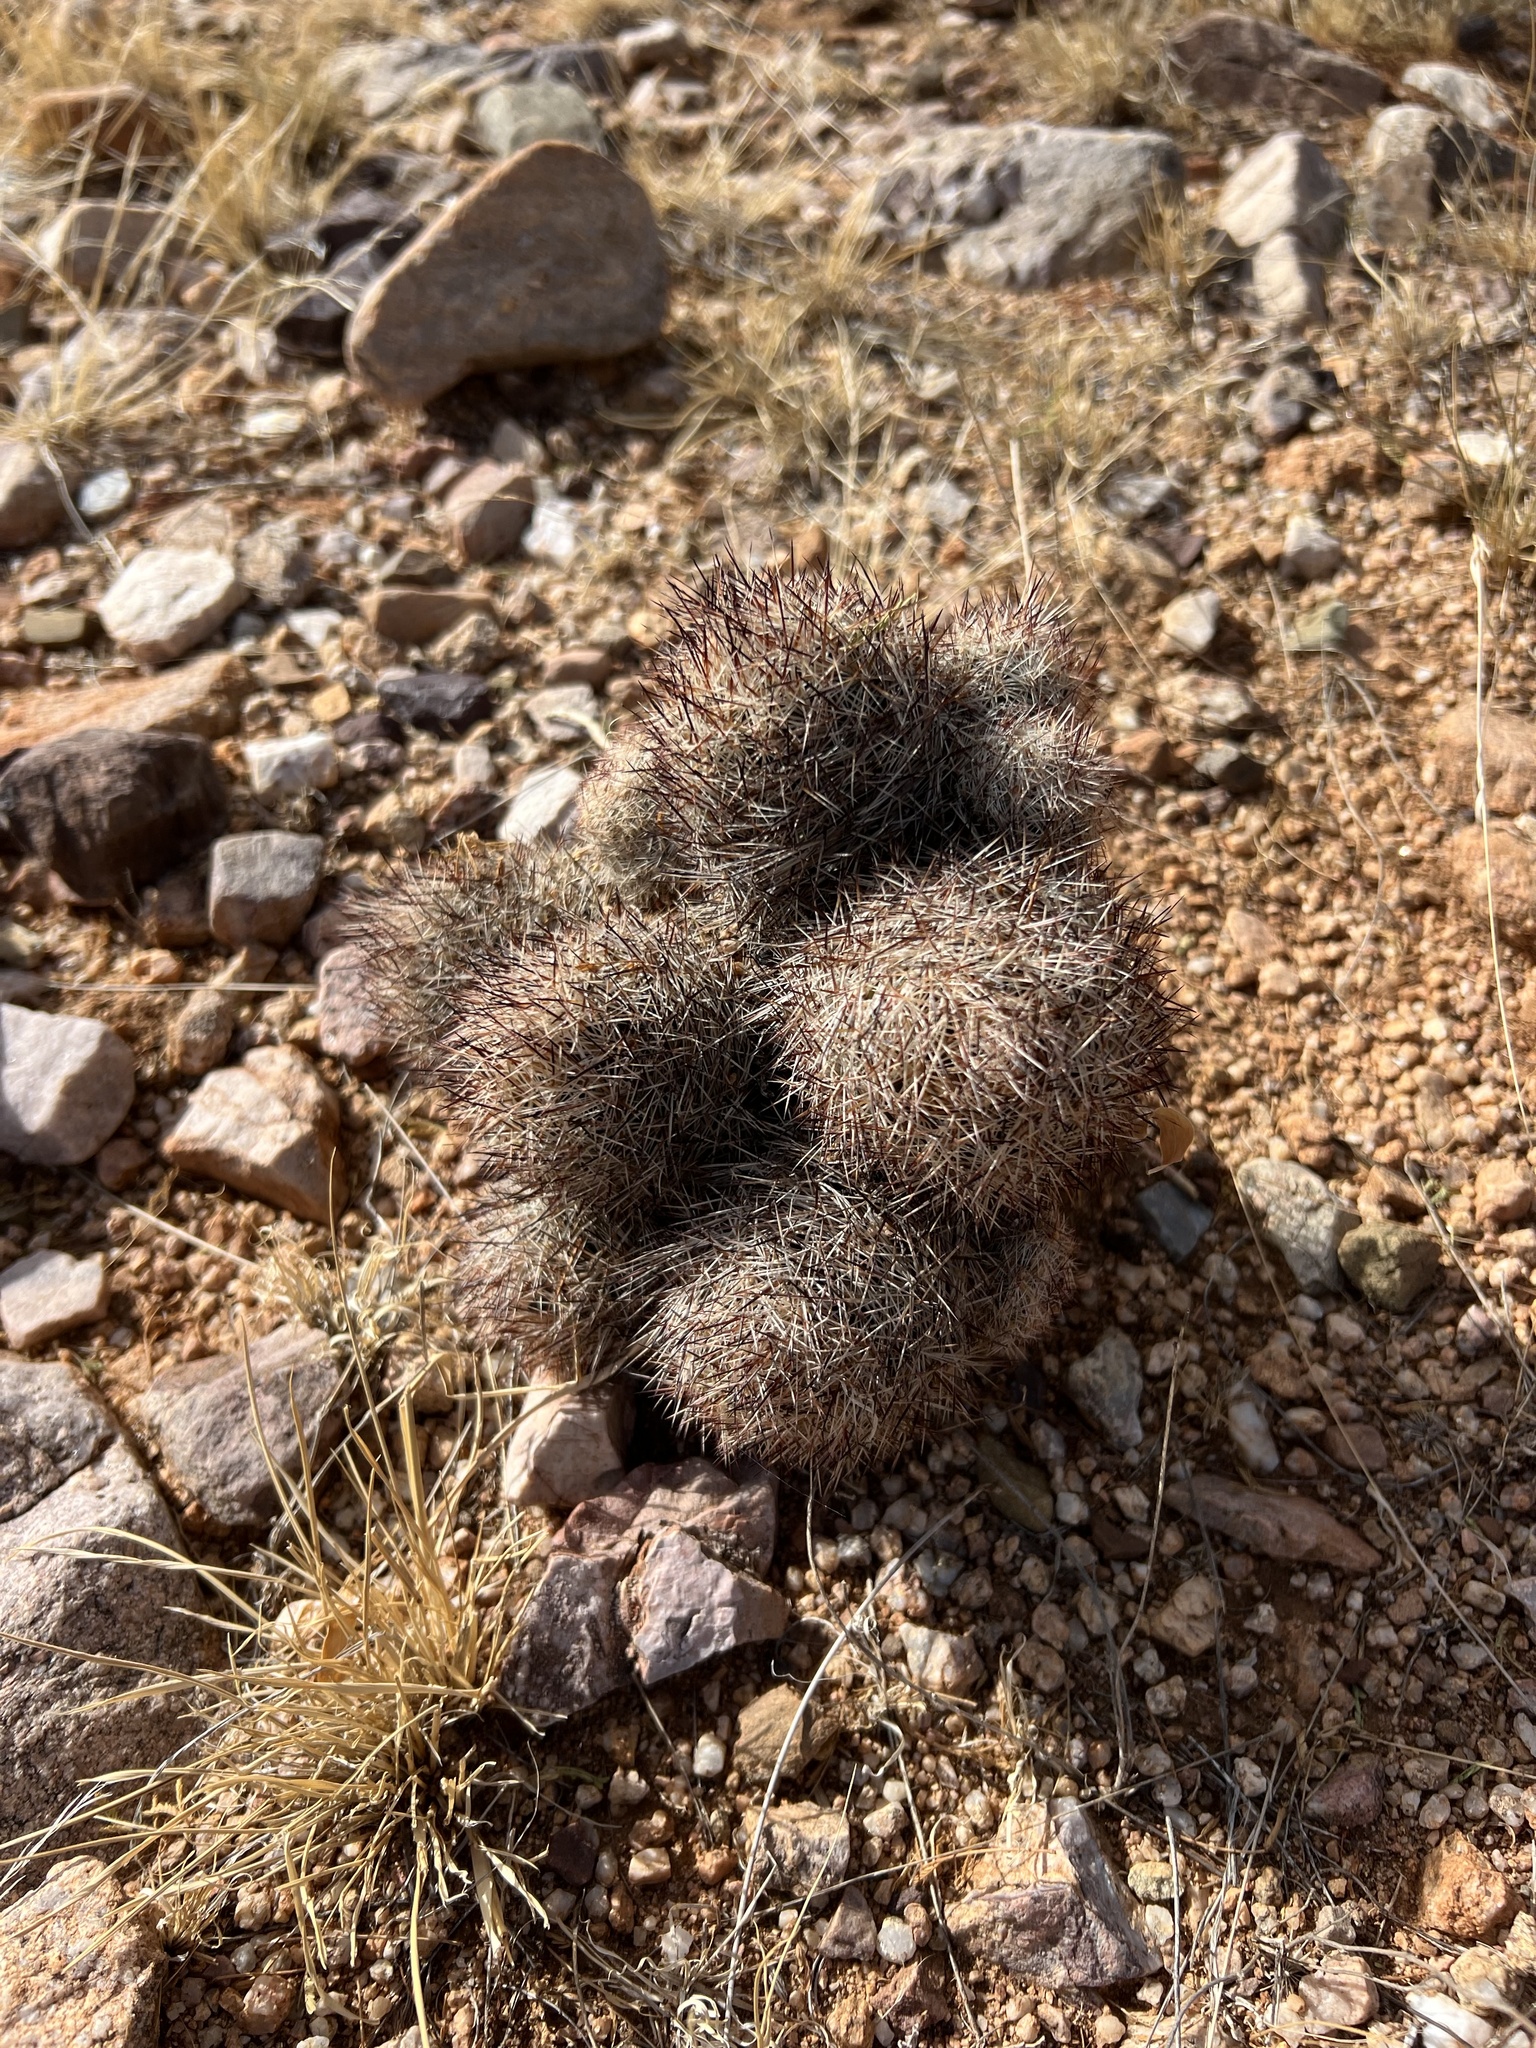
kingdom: Plantae
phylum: Tracheophyta
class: Magnoliopsida
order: Caryophyllales
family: Cactaceae
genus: Pelecyphora
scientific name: Pelecyphora vivipara
